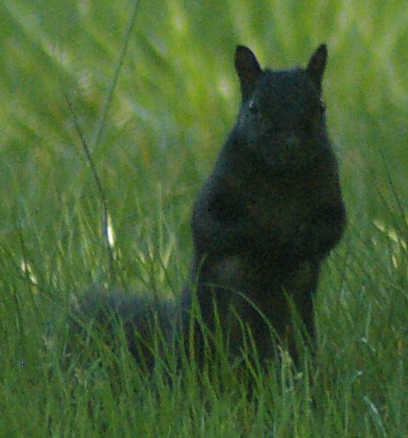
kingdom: Animalia
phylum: Chordata
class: Mammalia
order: Rodentia
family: Sciuridae
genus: Sciurus
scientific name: Sciurus carolinensis
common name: Eastern gray squirrel
